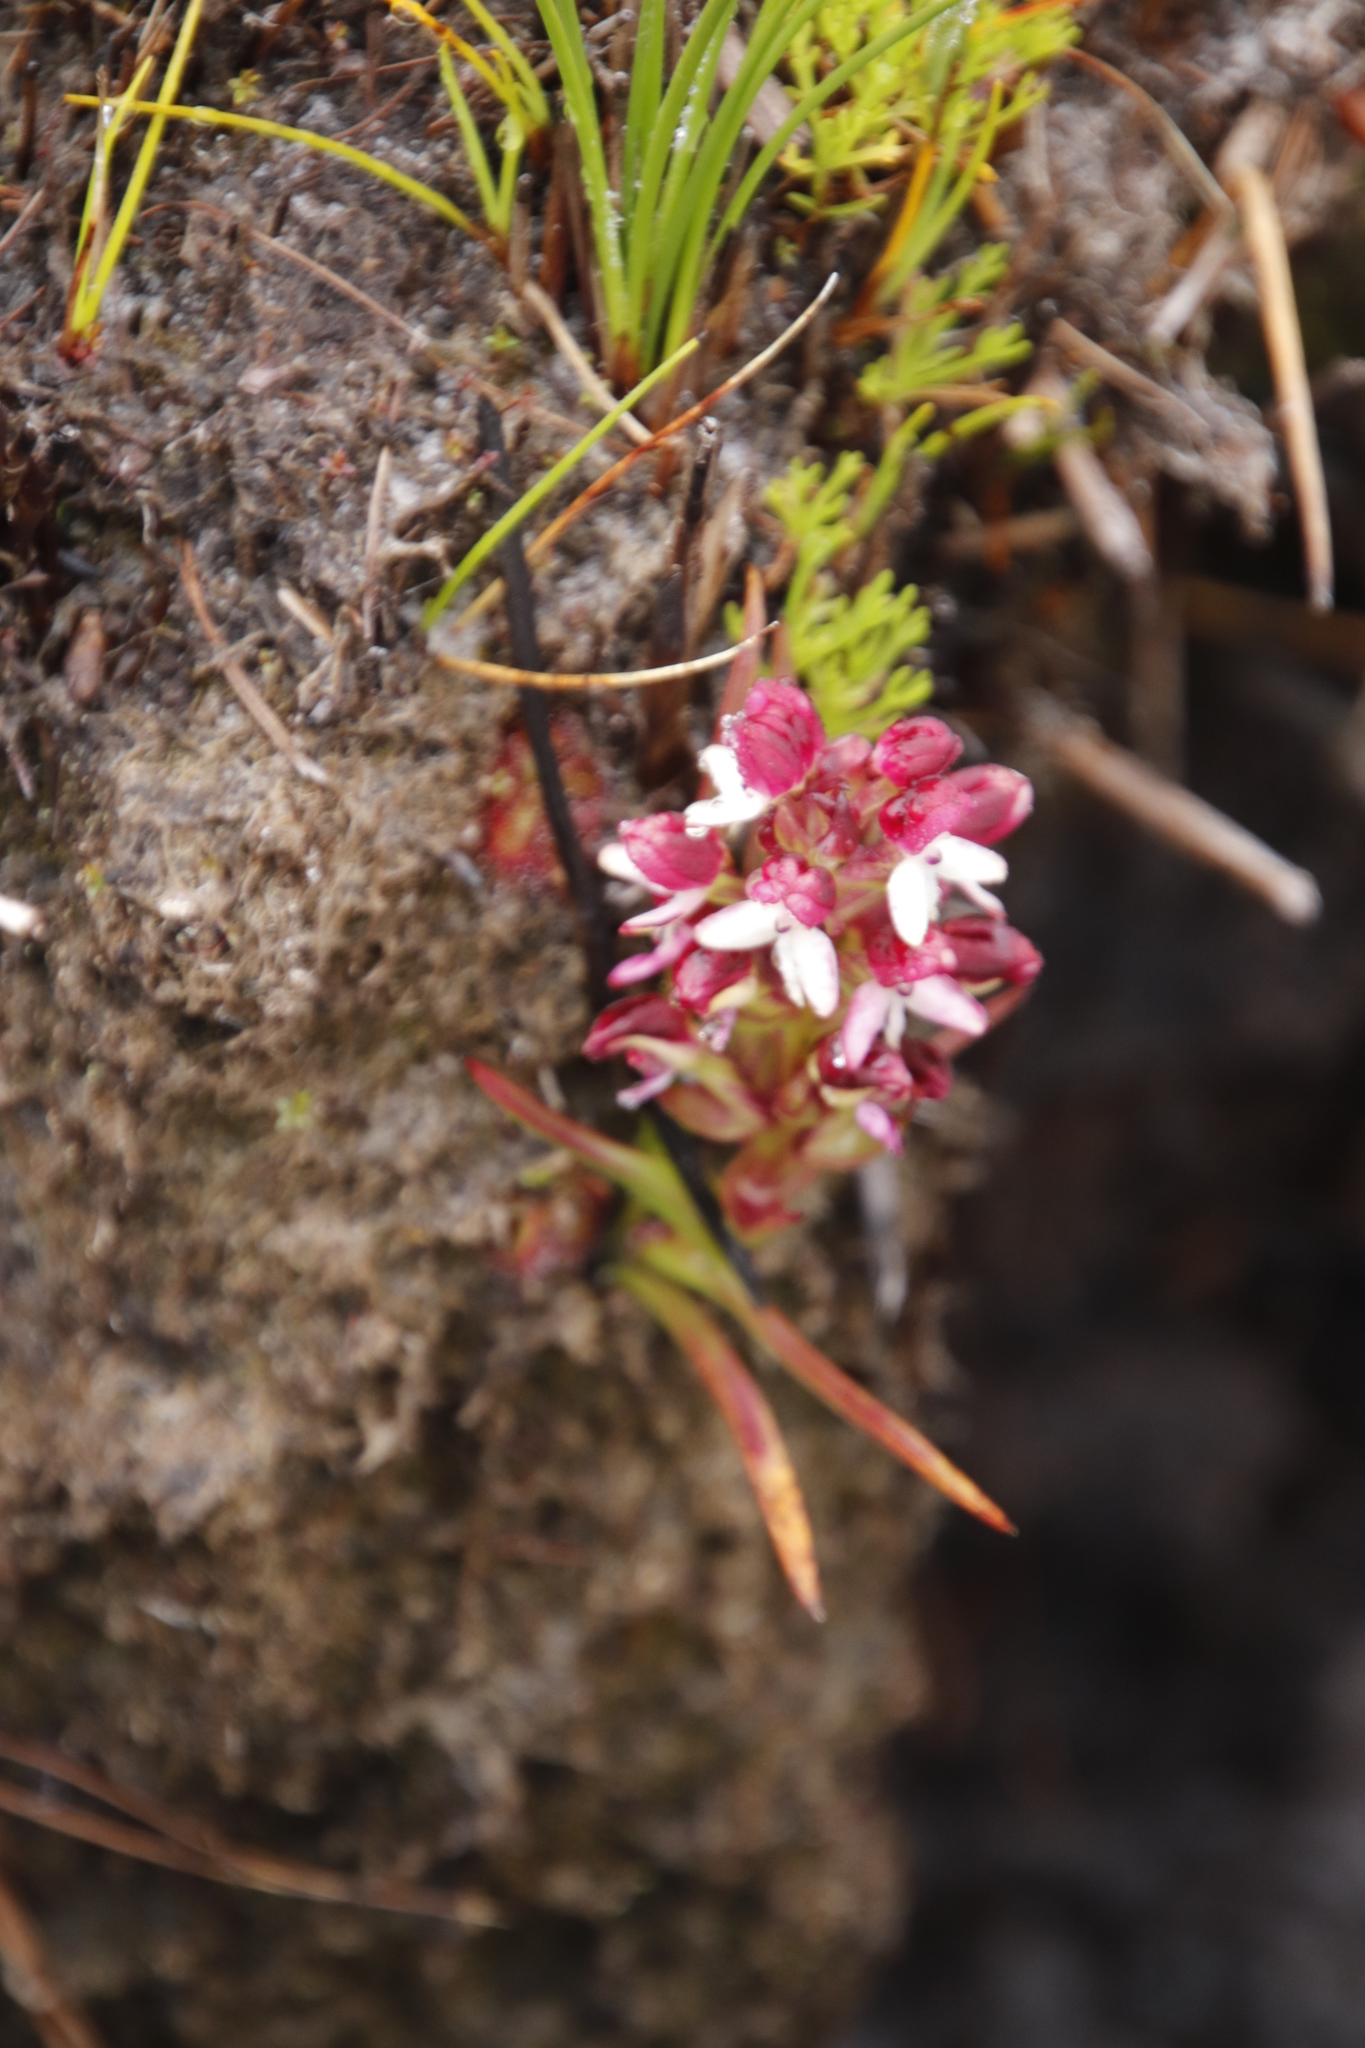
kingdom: Plantae
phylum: Tracheophyta
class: Liliopsida
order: Asparagales
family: Orchidaceae
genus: Disa
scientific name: Disa albomagentea
